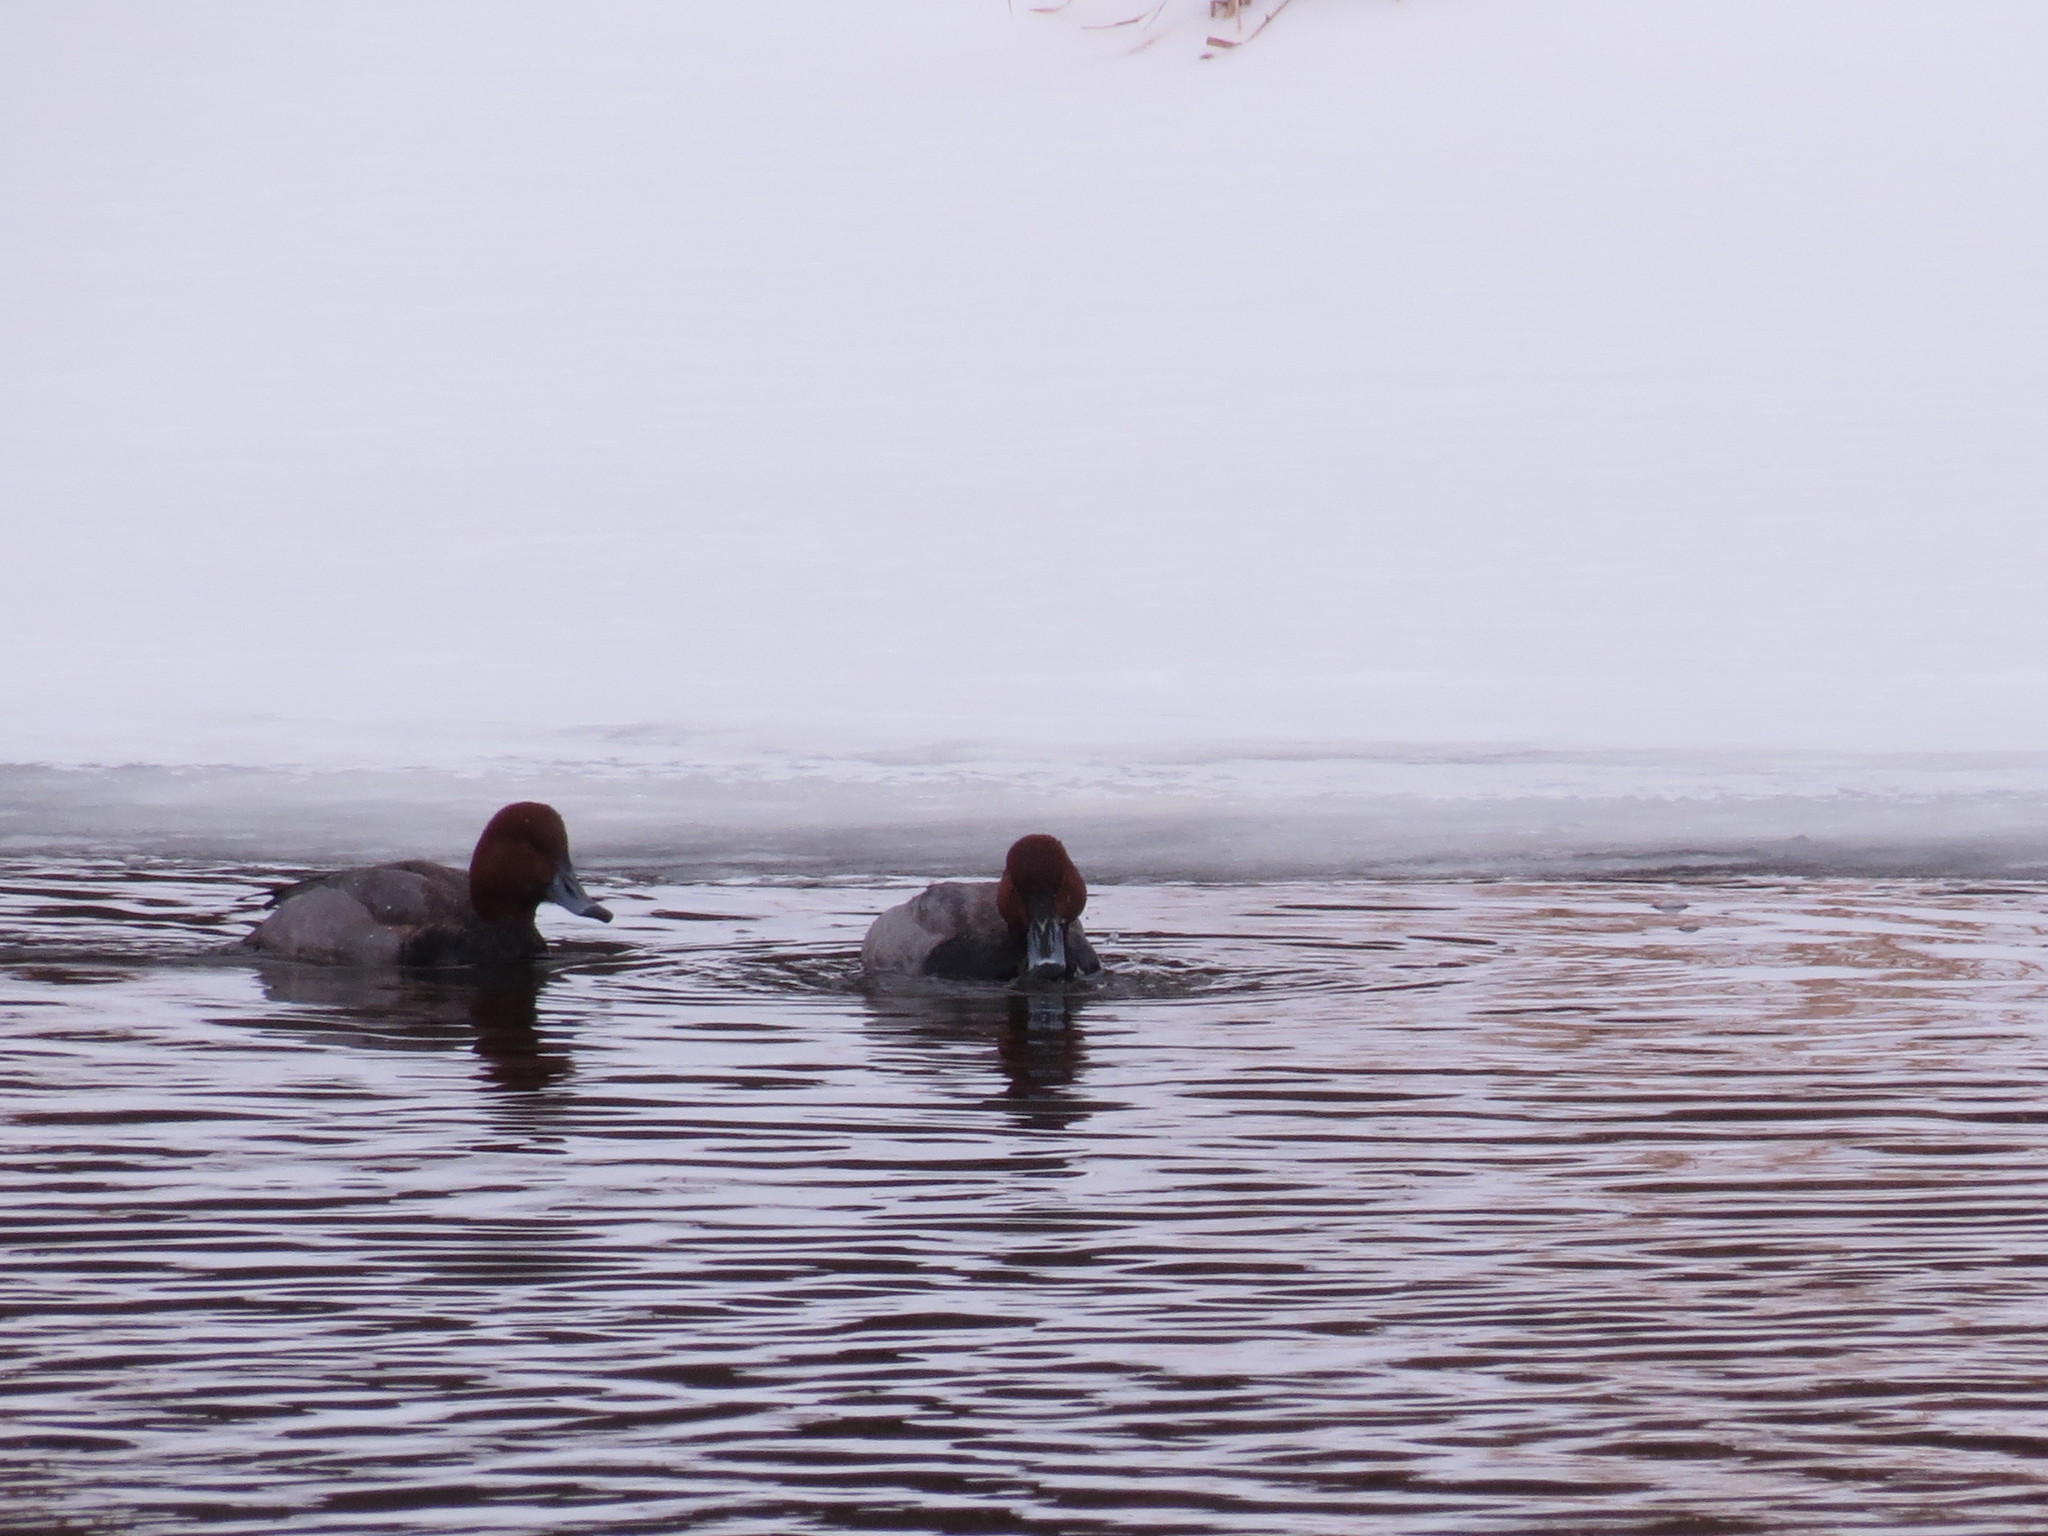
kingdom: Animalia
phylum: Chordata
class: Aves
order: Anseriformes
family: Anatidae
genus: Aythya
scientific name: Aythya americana
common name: Redhead
